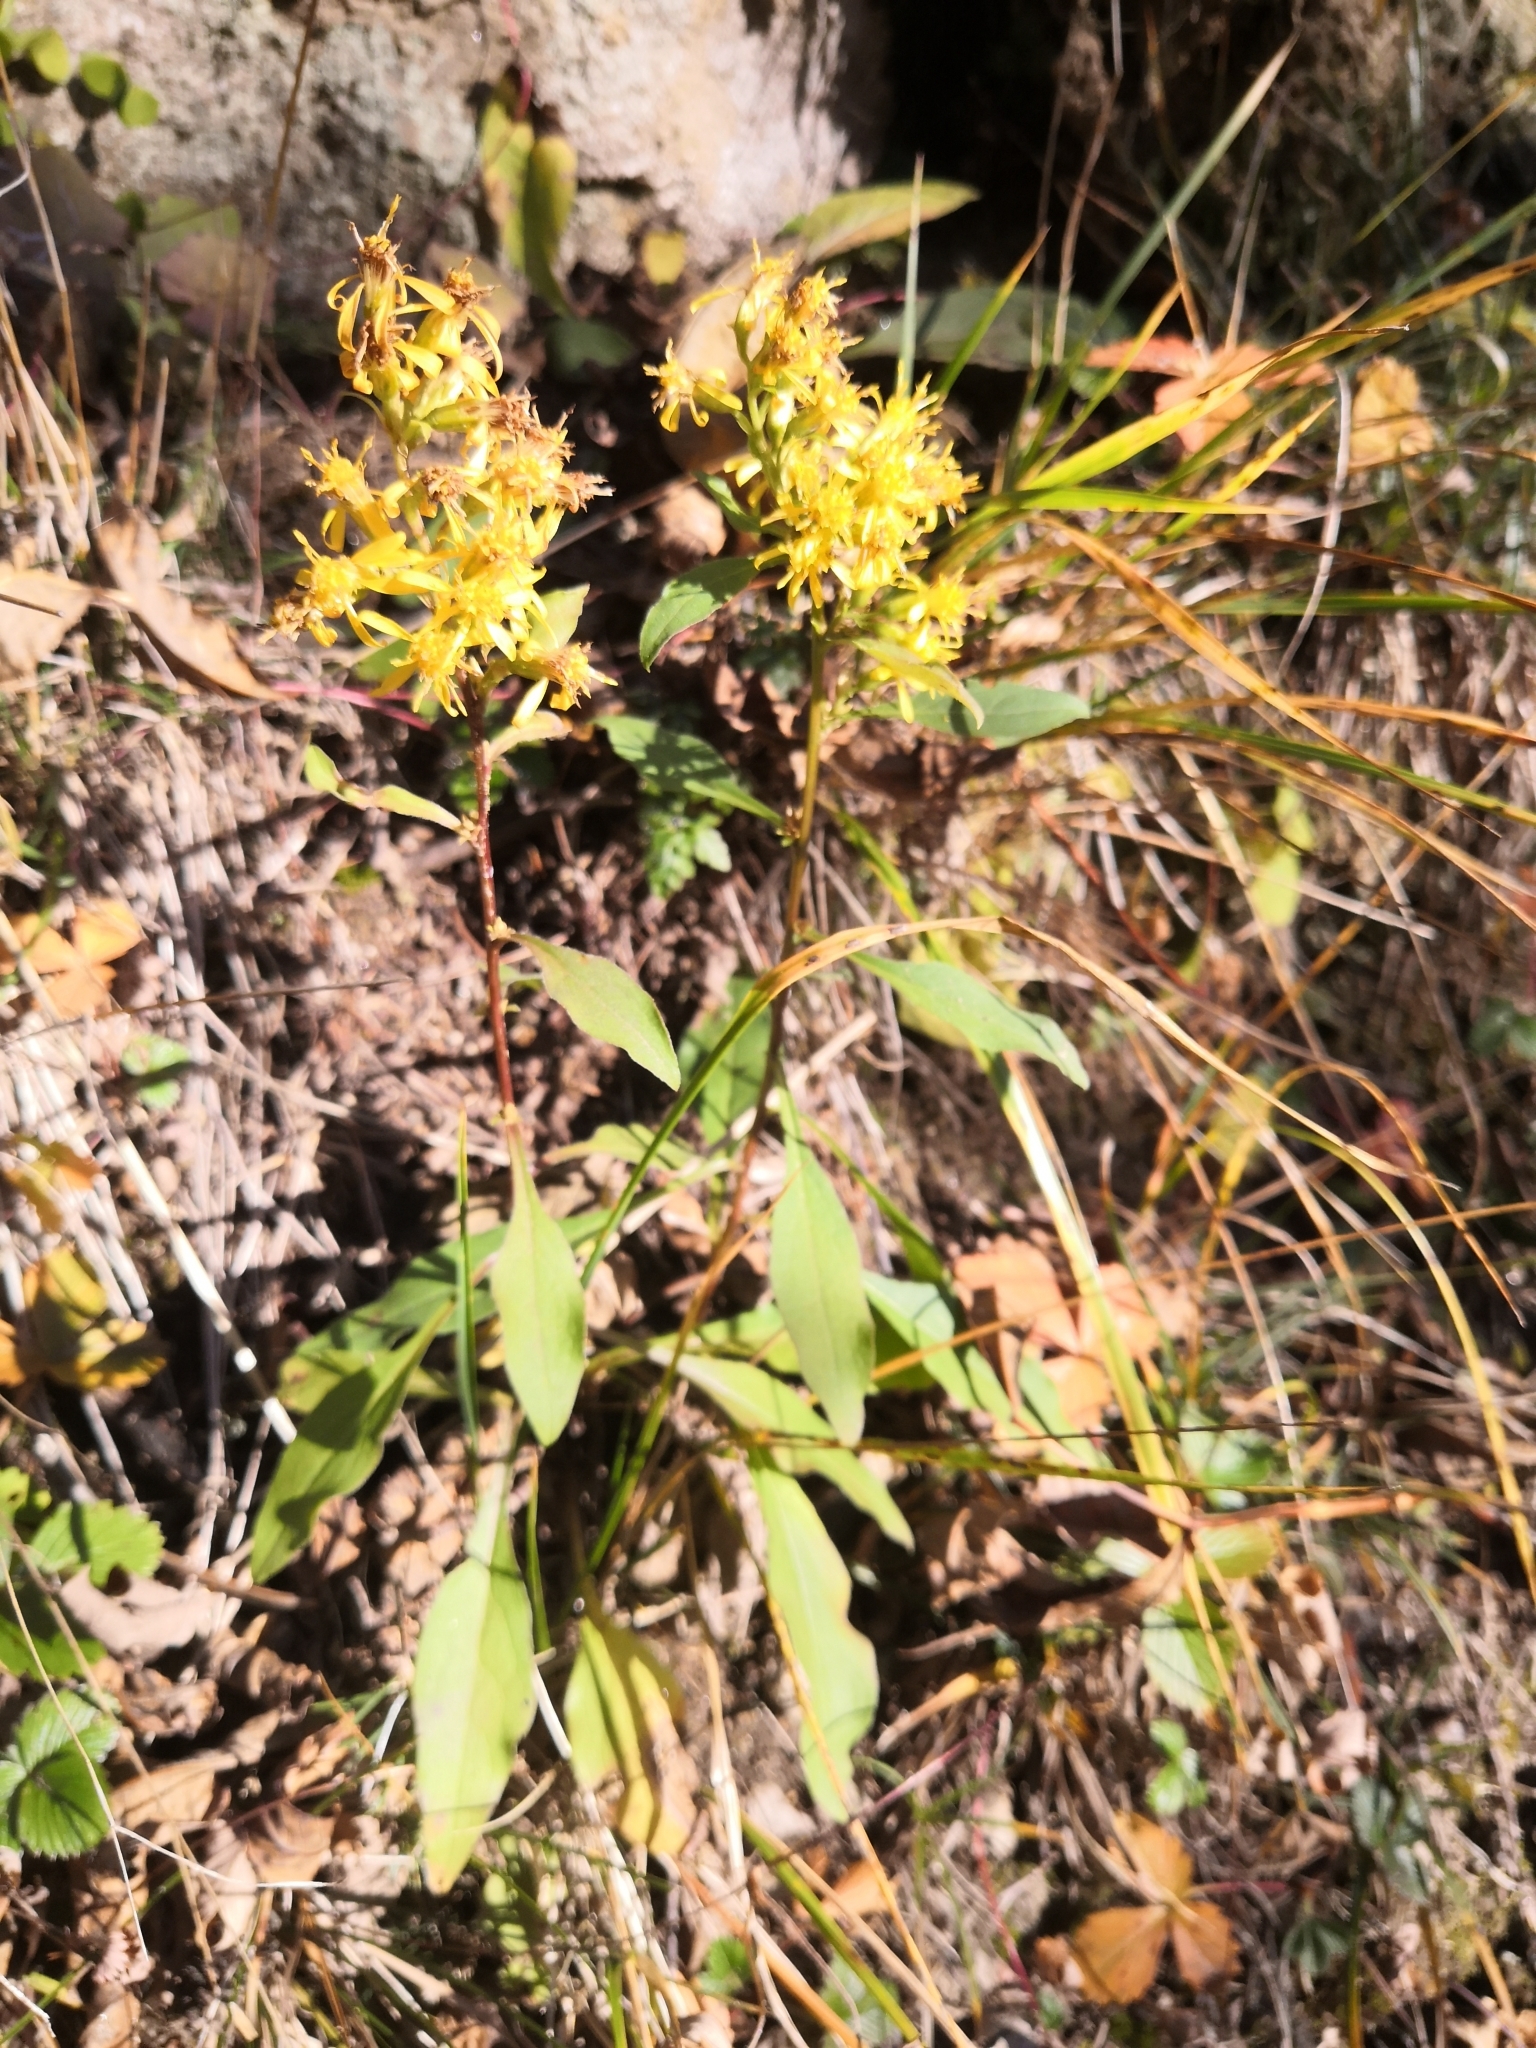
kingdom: Plantae
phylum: Tracheophyta
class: Magnoliopsida
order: Asterales
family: Asteraceae
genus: Solidago
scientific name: Solidago virgaurea
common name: Goldenrod
